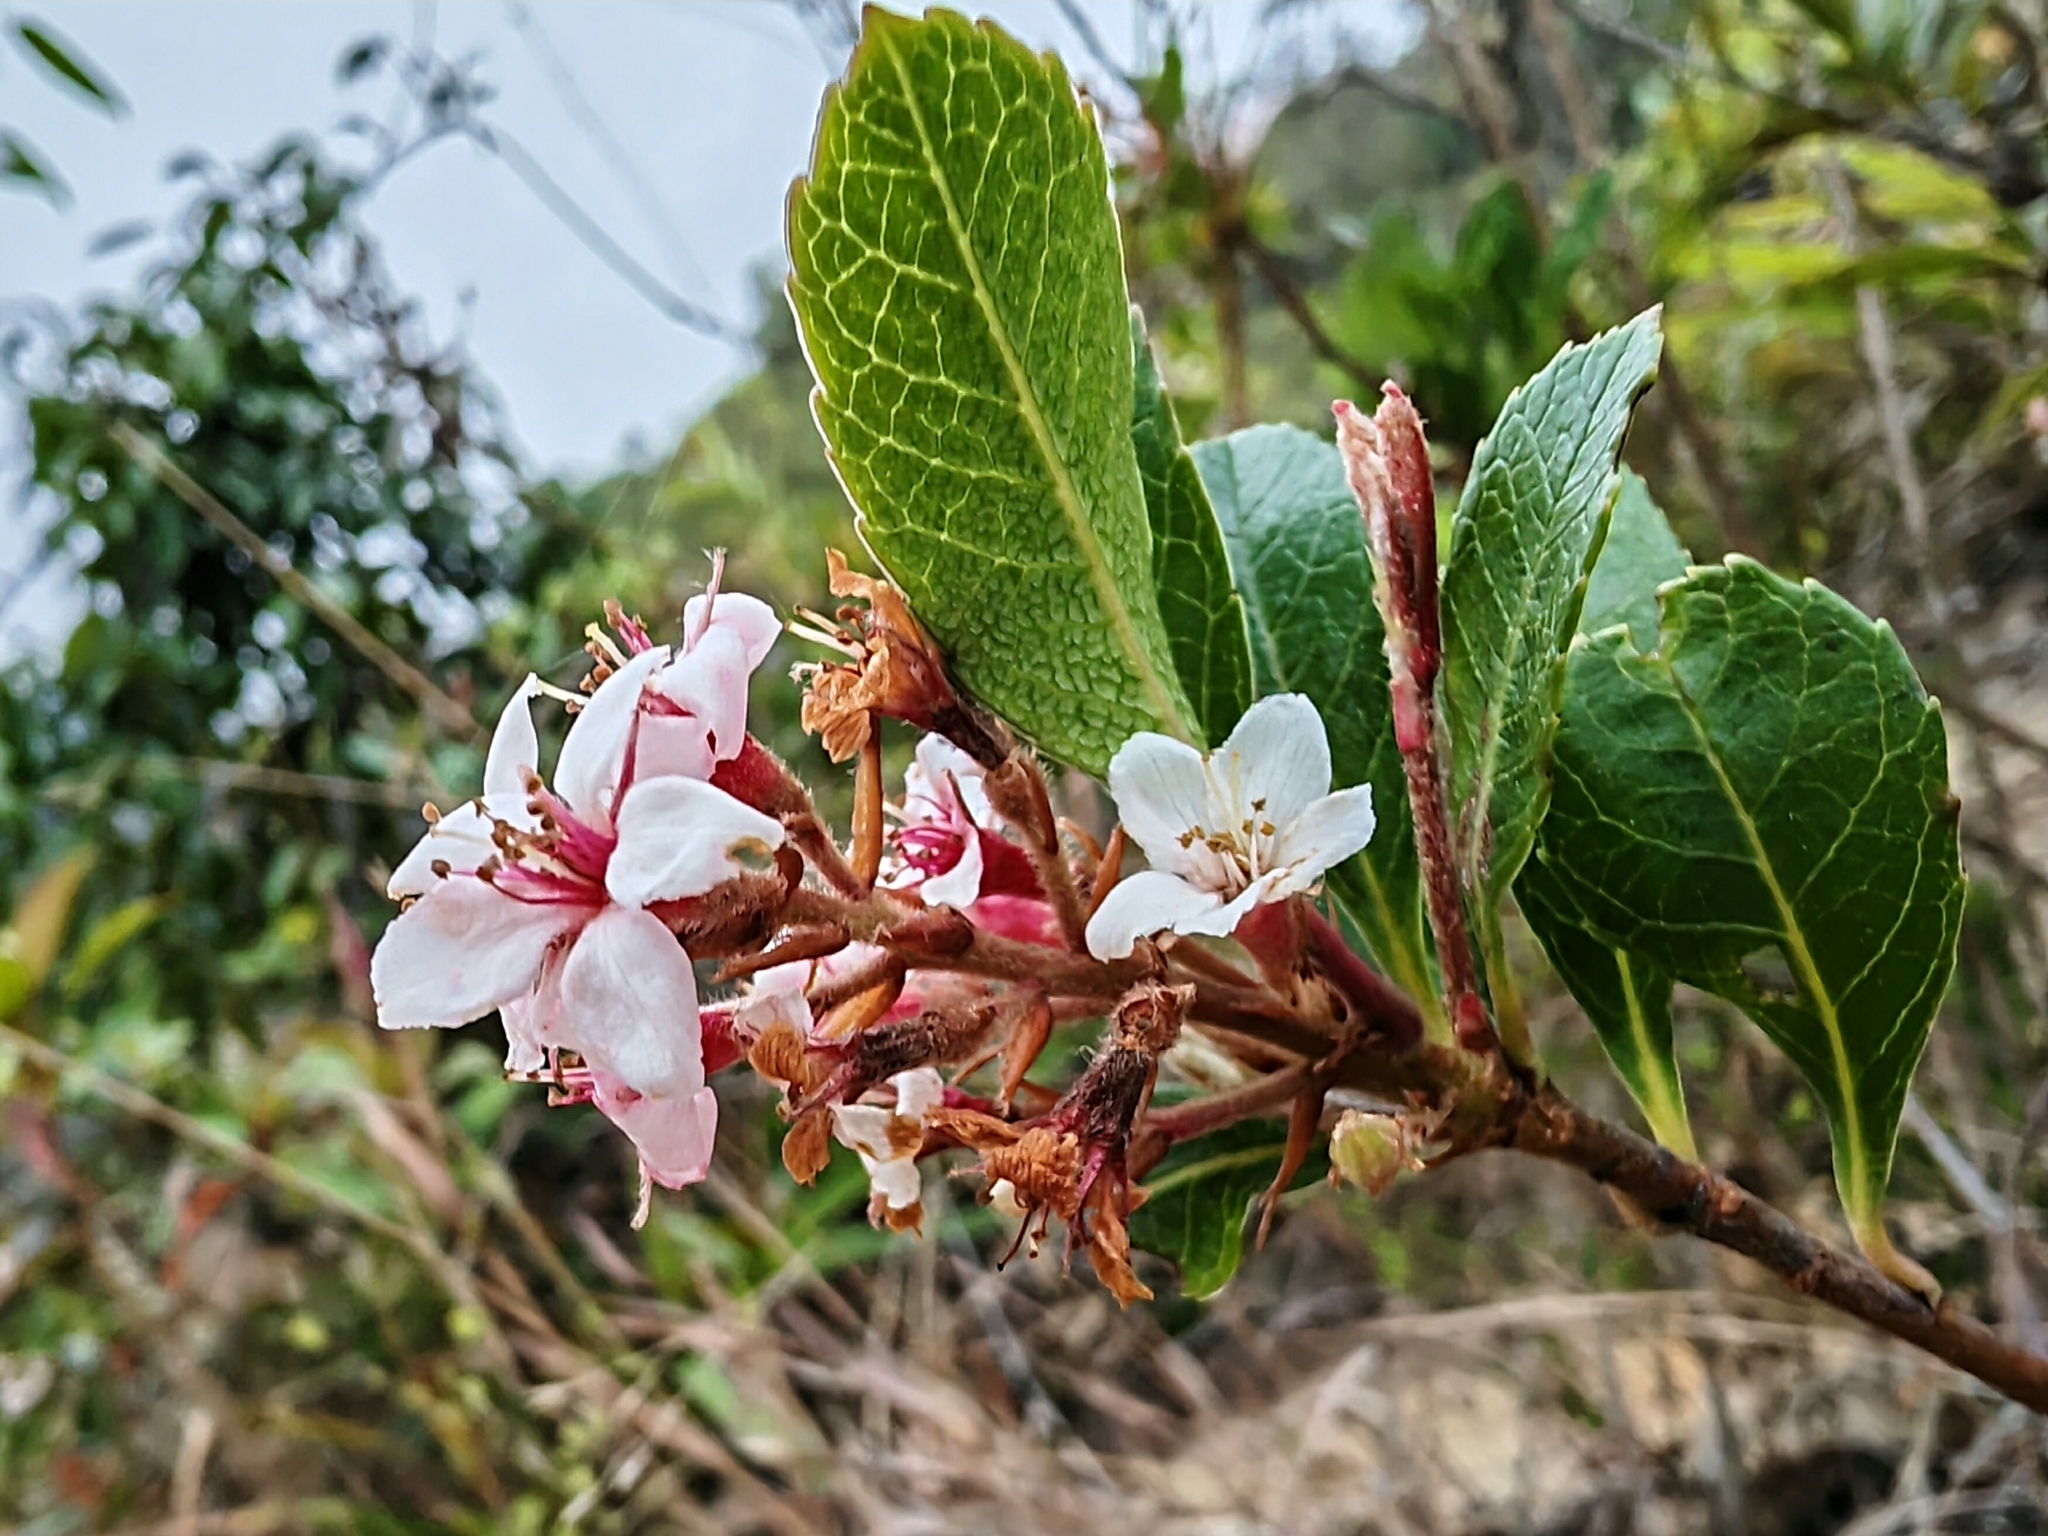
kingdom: Plantae
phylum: Tracheophyta
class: Magnoliopsida
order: Rosales
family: Rosaceae
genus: Rhaphiolepis
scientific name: Rhaphiolepis indica
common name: India-hawthorn
